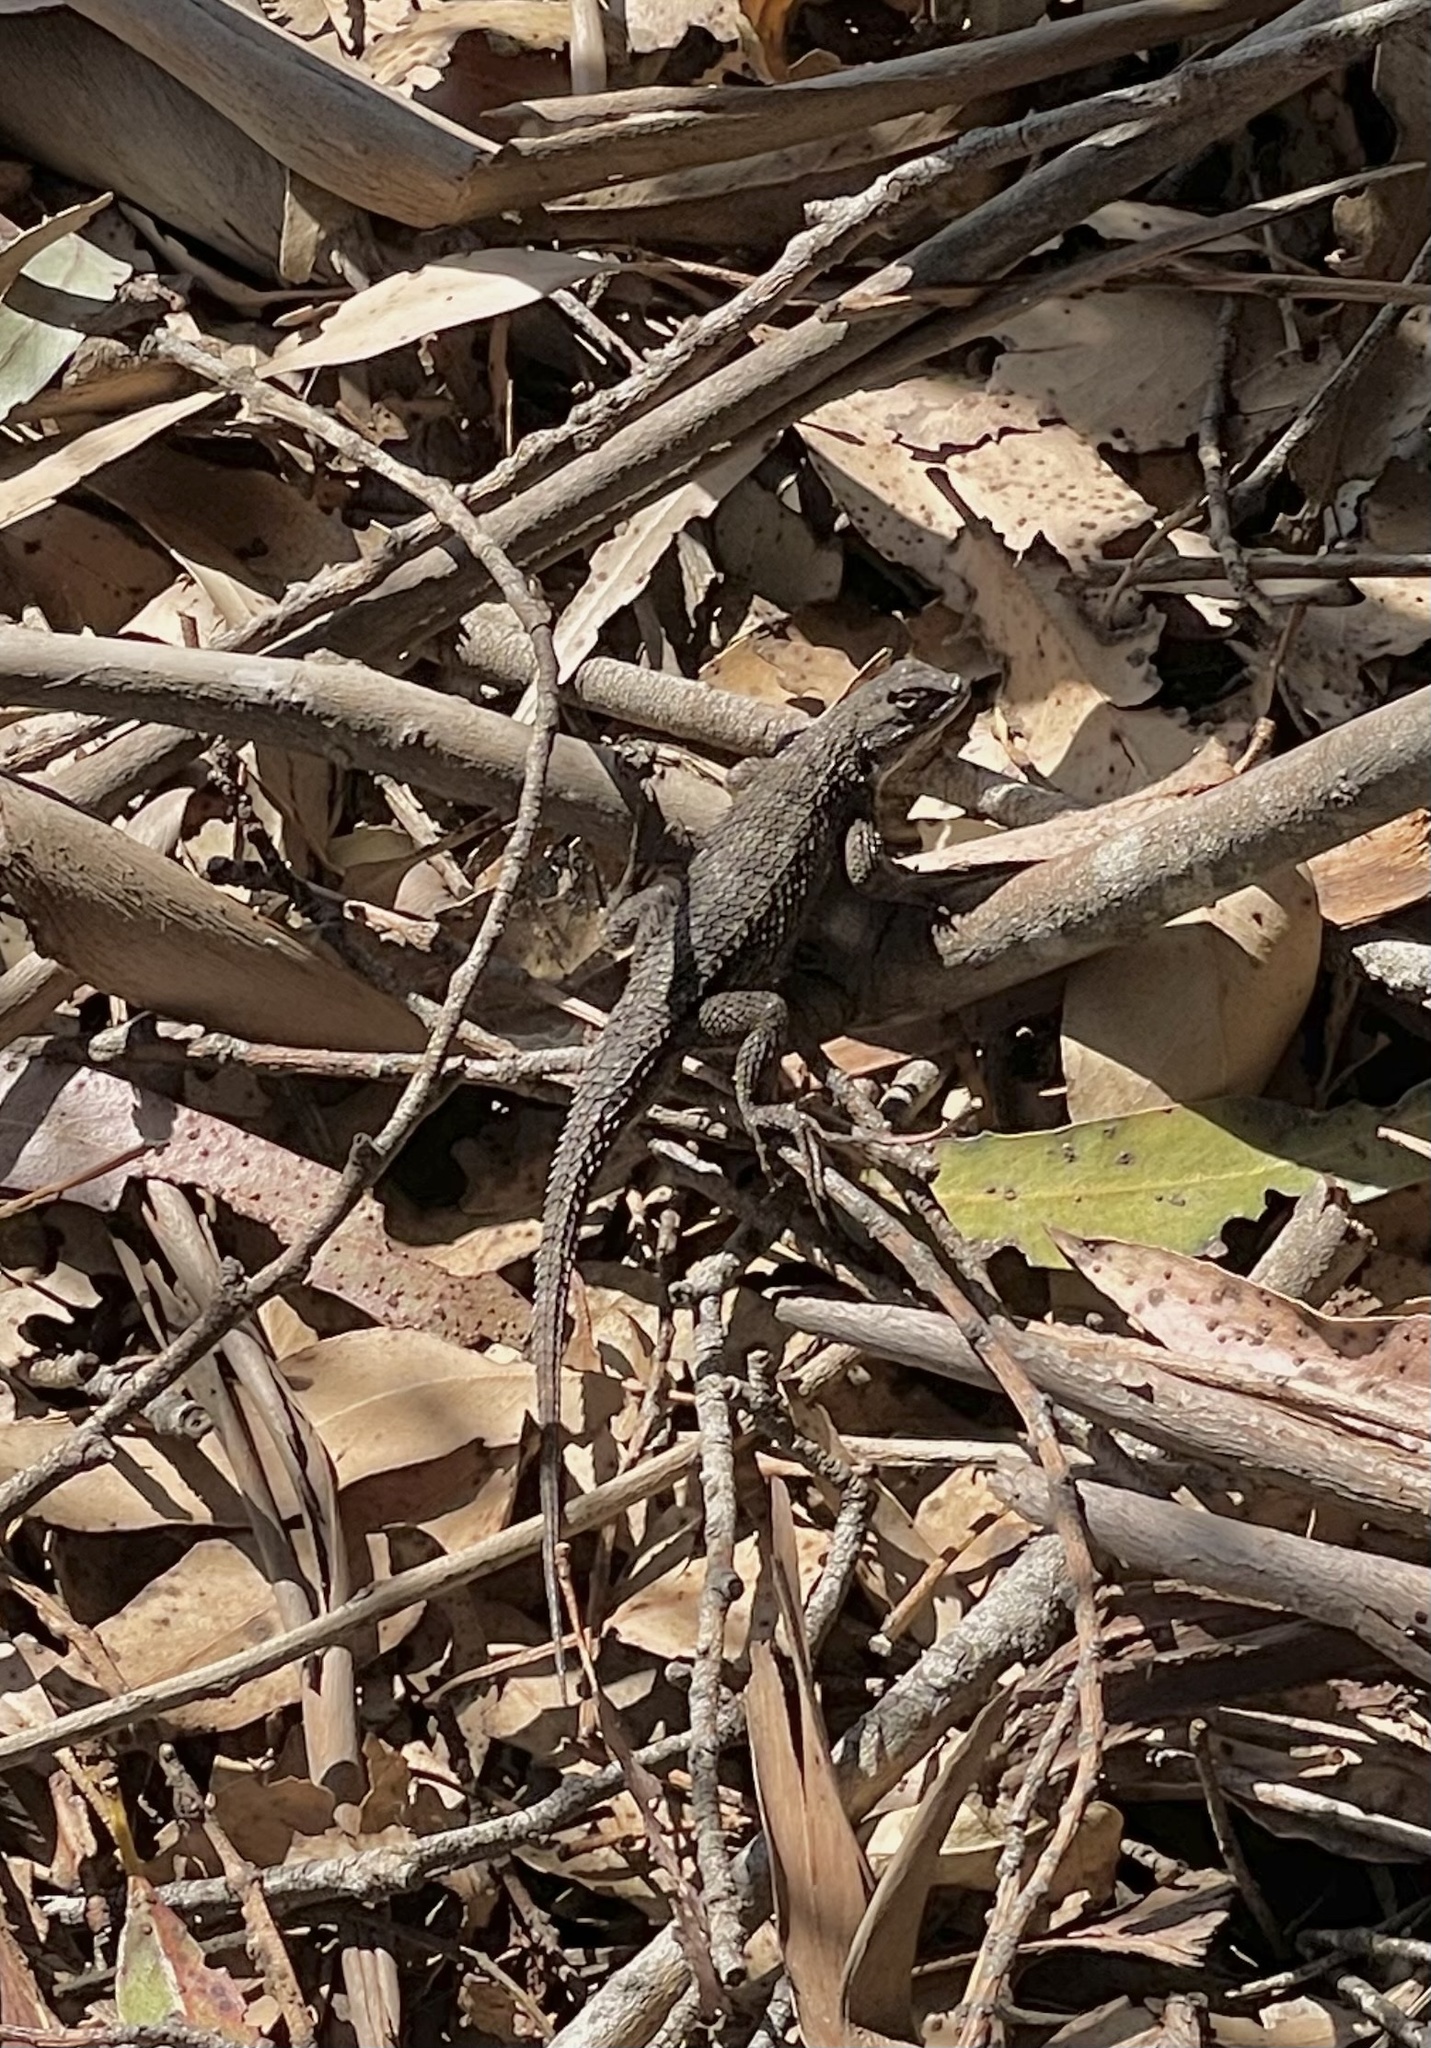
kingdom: Animalia
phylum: Chordata
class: Squamata
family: Phrynosomatidae
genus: Sceloporus
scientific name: Sceloporus occidentalis
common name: Western fence lizard
